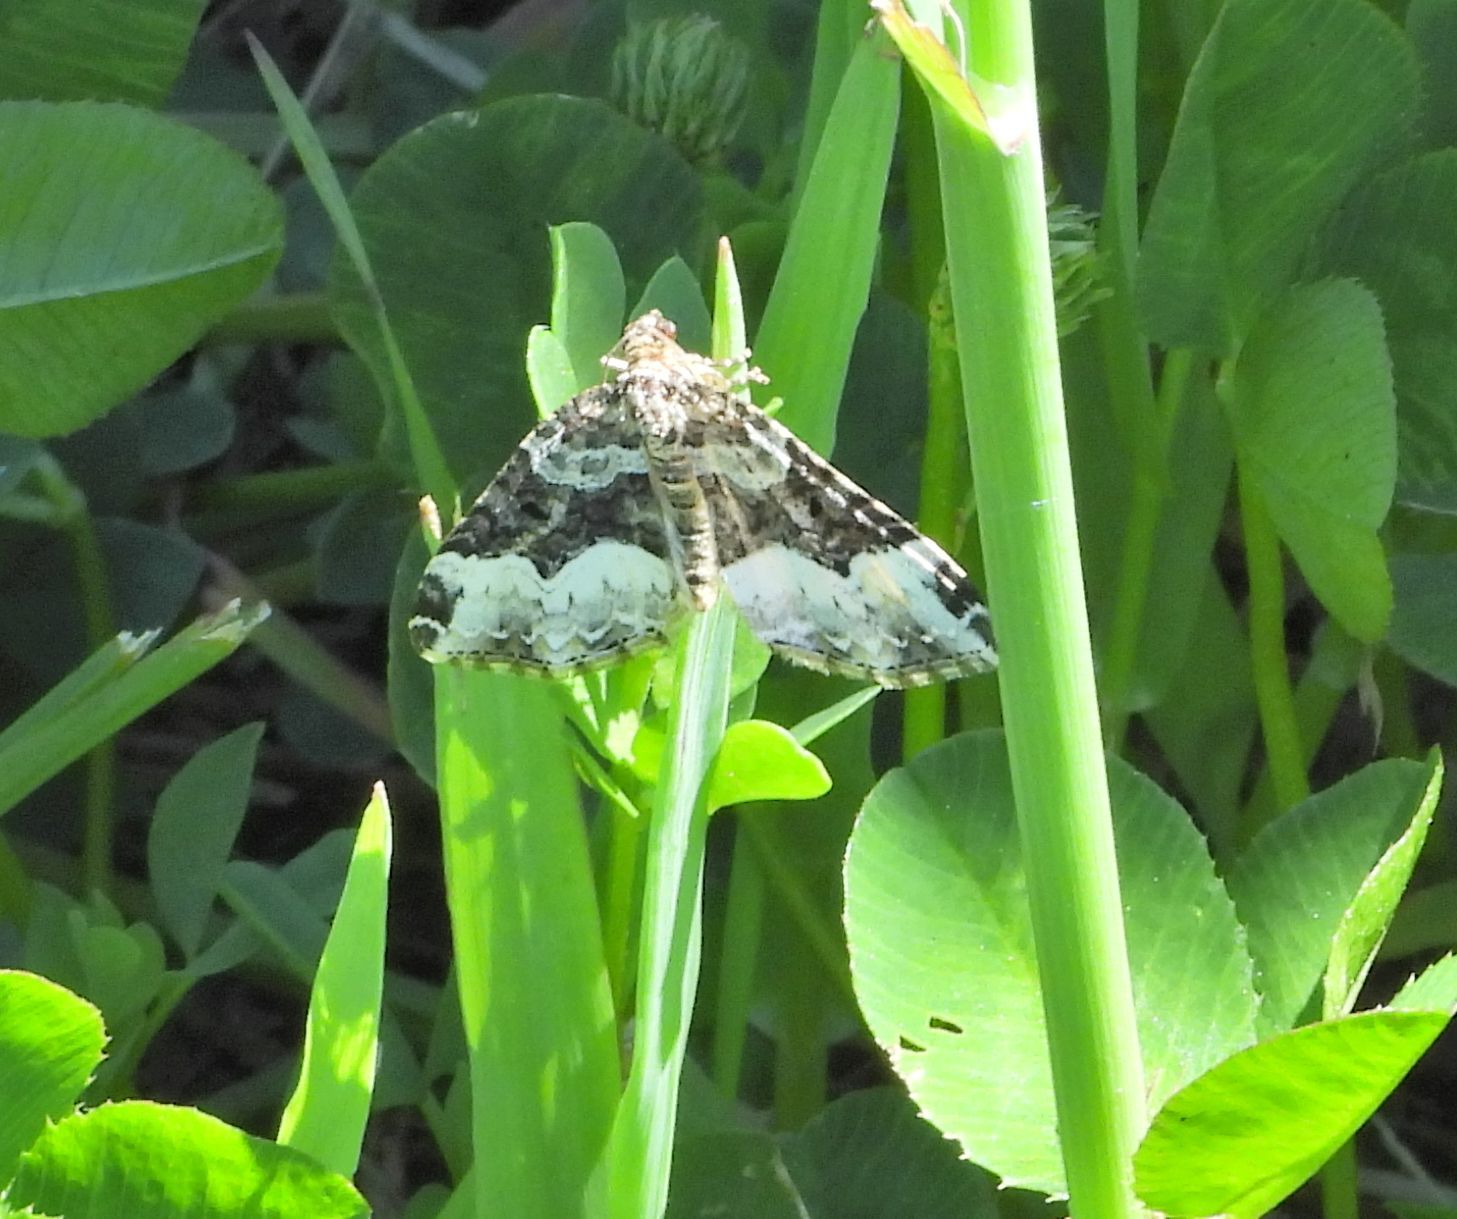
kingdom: Animalia
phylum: Arthropoda
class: Insecta
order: Lepidoptera
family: Geometridae
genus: Euphyia
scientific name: Euphyia intermediata
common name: Sharp-angled carpet
